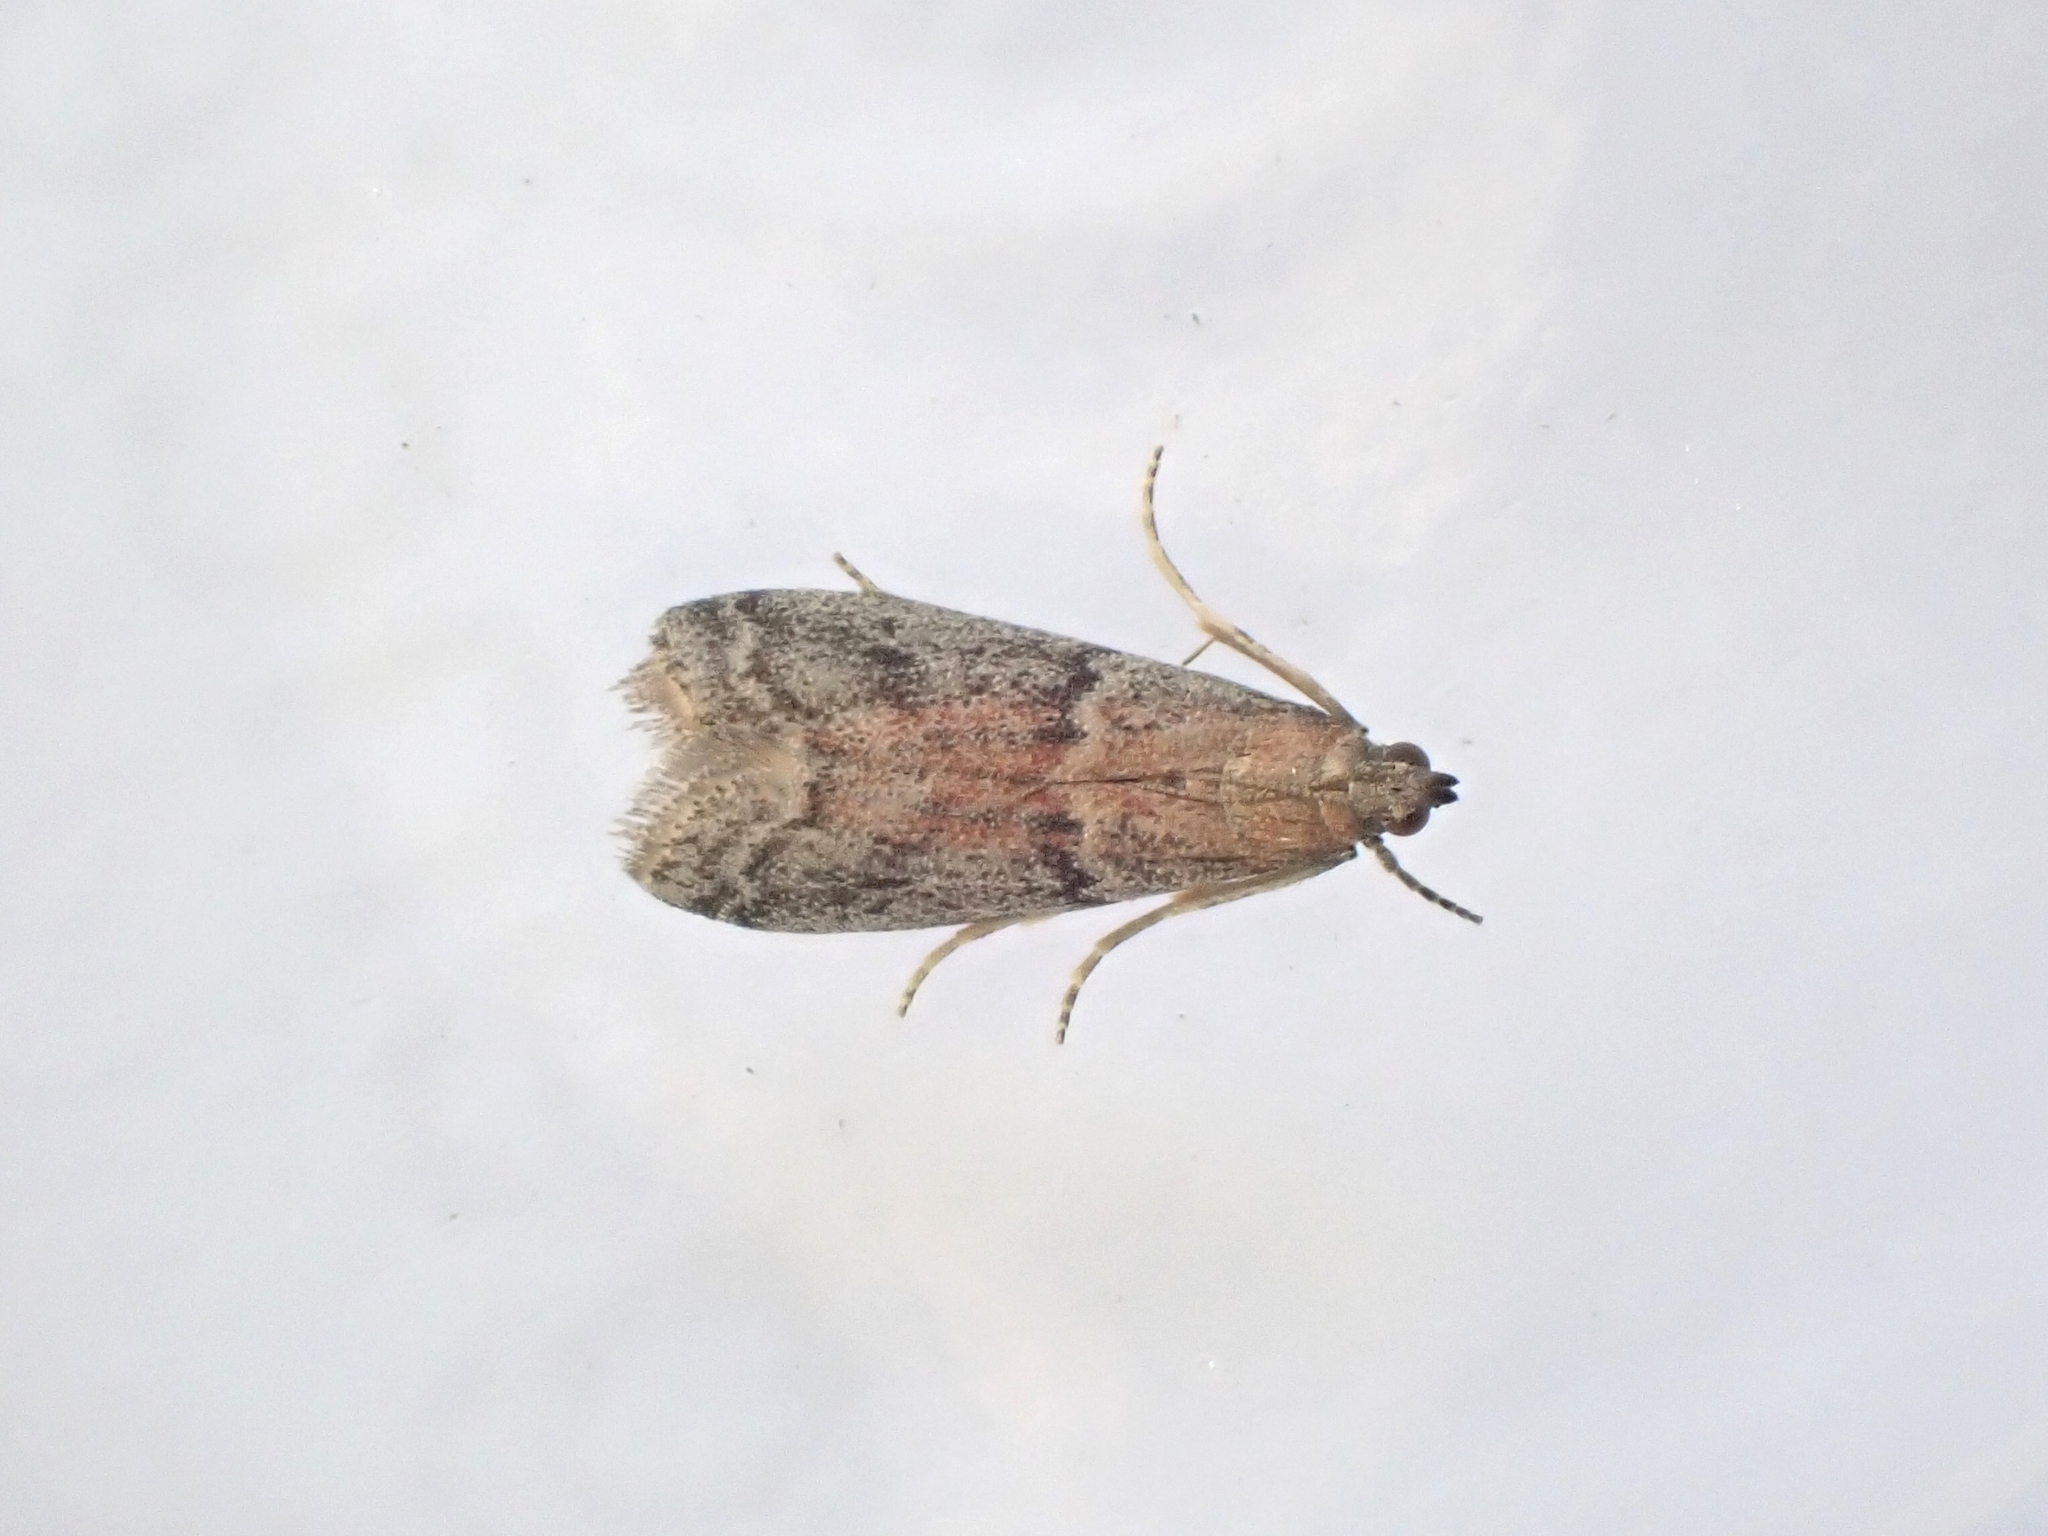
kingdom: Animalia
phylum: Arthropoda
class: Insecta
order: Lepidoptera
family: Pyralidae
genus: Ephestia
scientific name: Ephestia elutella
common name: Cacao moth
